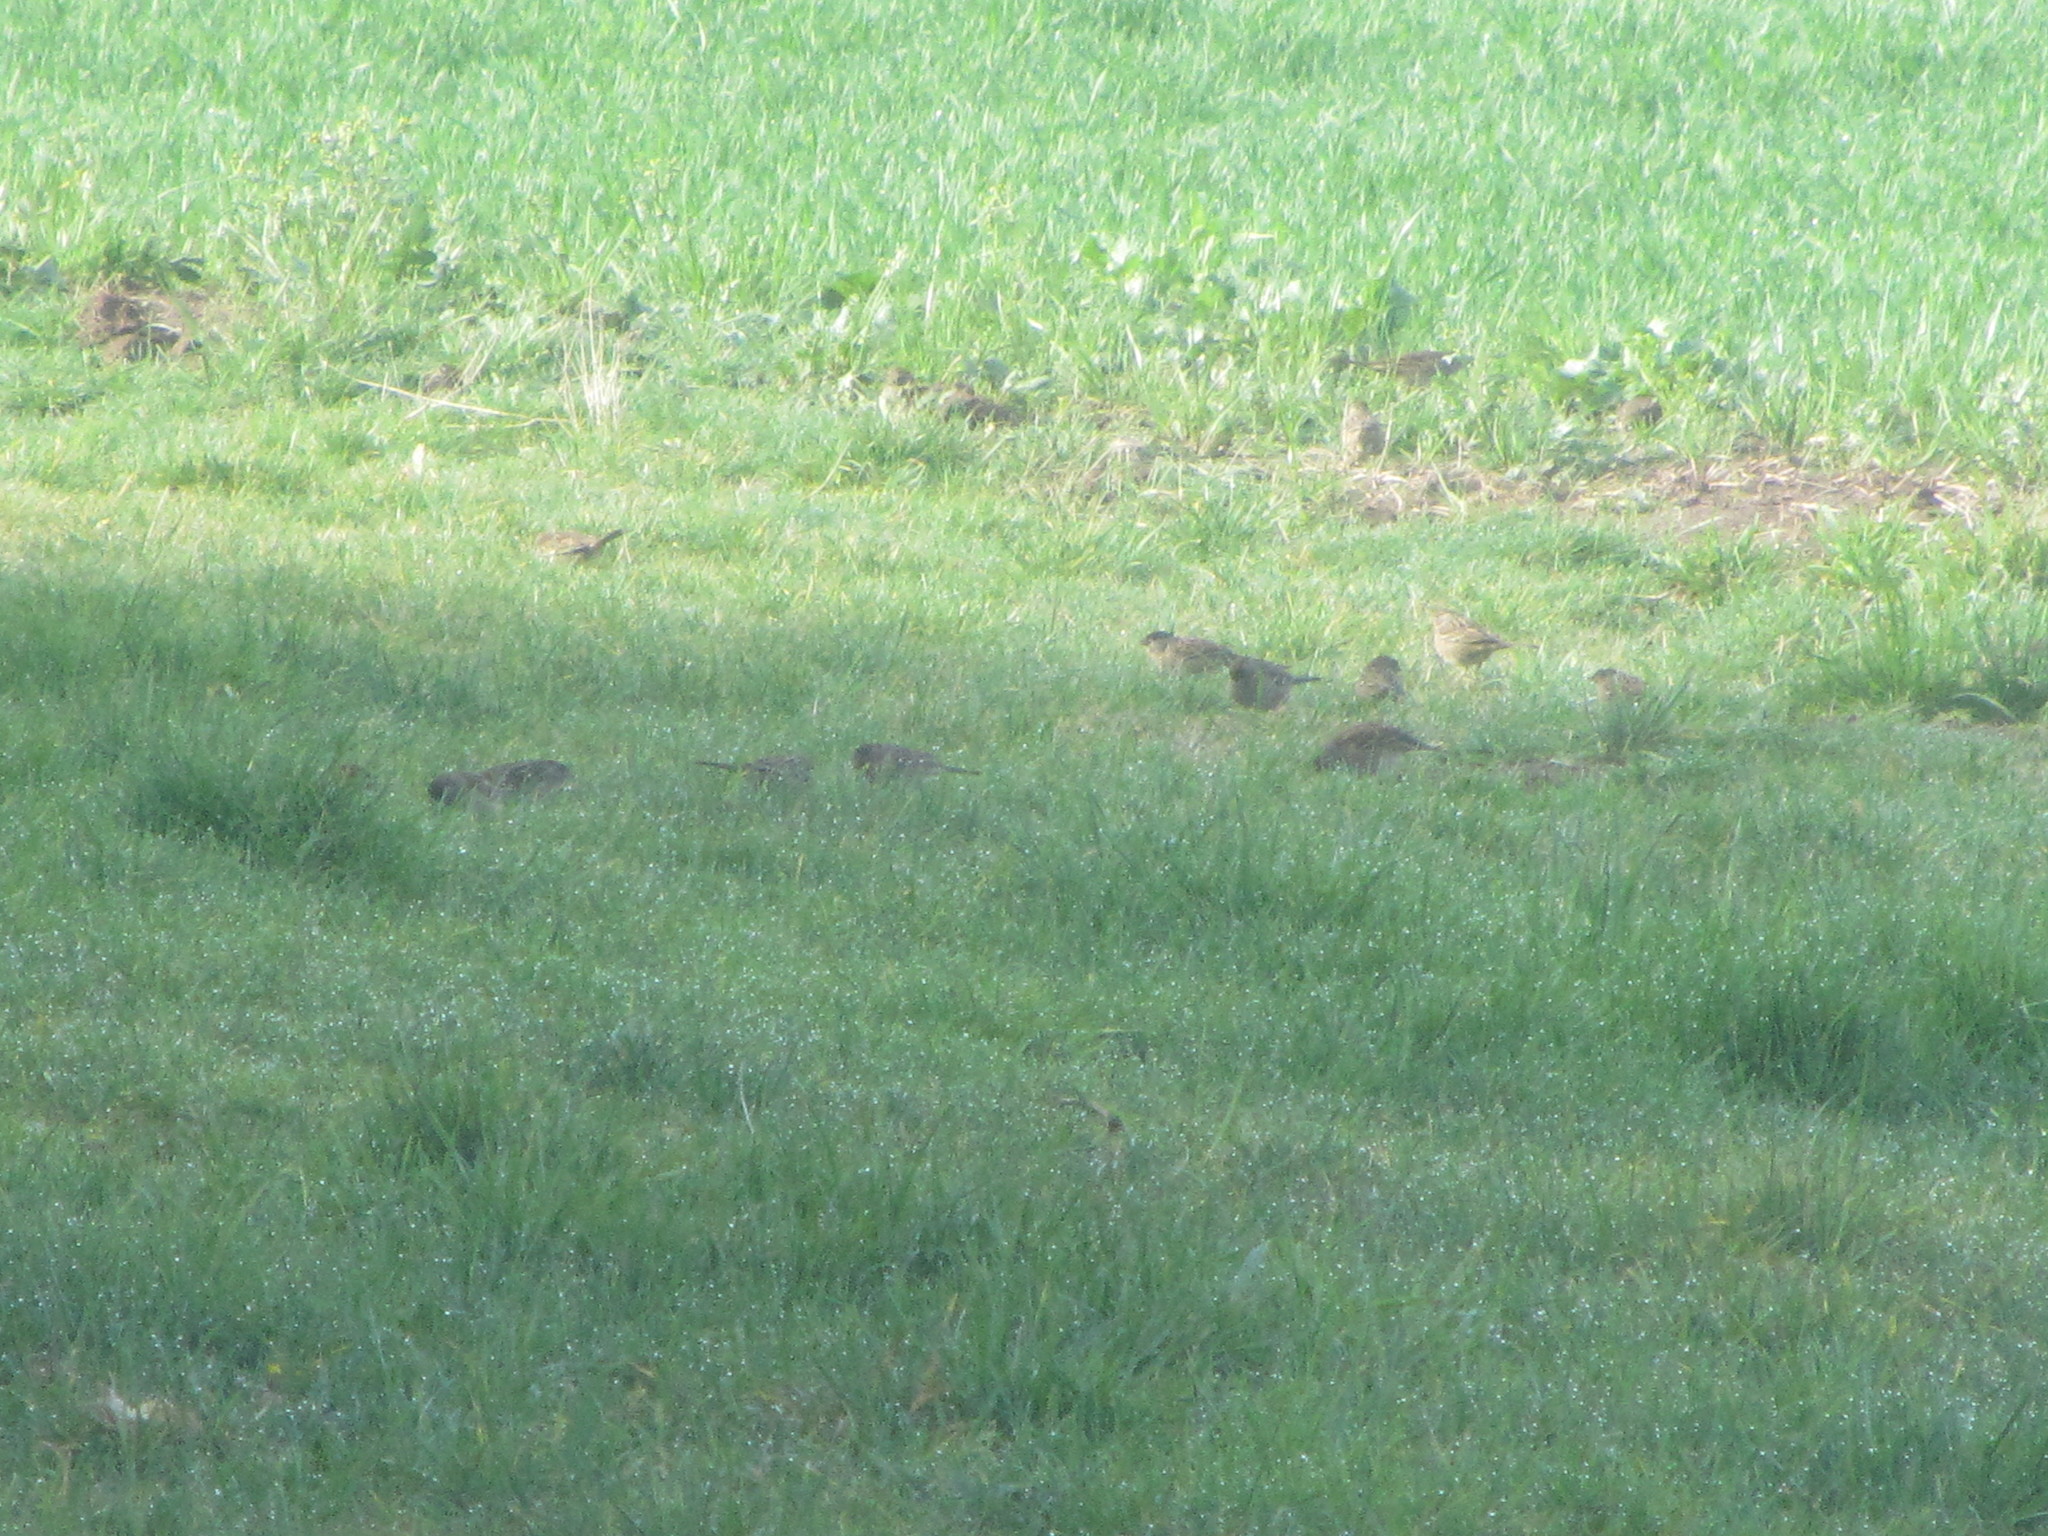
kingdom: Animalia
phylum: Chordata
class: Aves
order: Passeriformes
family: Passerellidae
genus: Zonotrichia
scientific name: Zonotrichia atricapilla
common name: Golden-crowned sparrow
